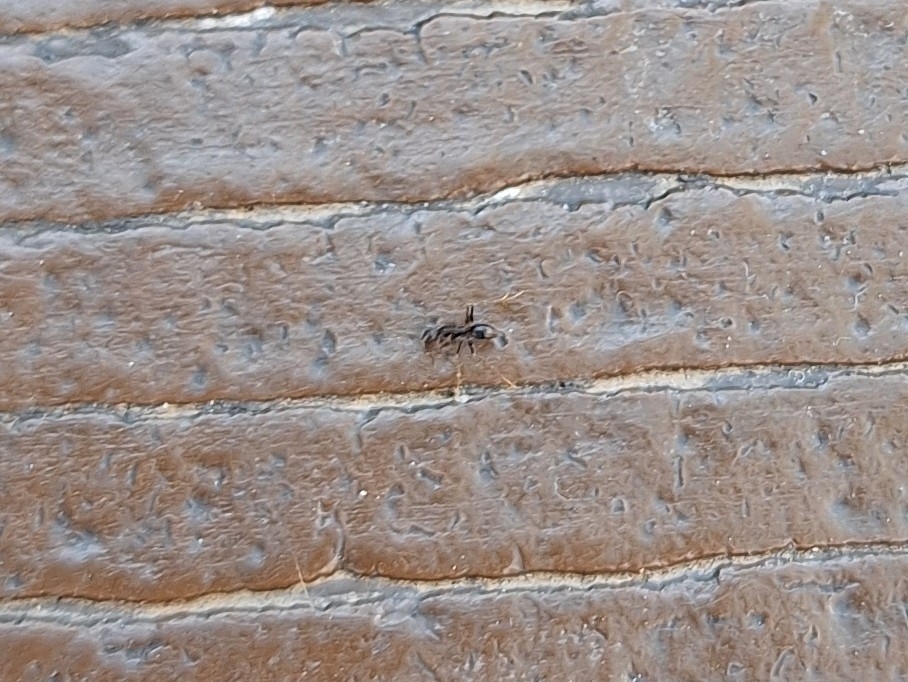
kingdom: Animalia
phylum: Arthropoda
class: Insecta
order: Hymenoptera
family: Formicidae
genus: Paratrechina
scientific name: Paratrechina longicornis
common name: Longhorned crazy ant
